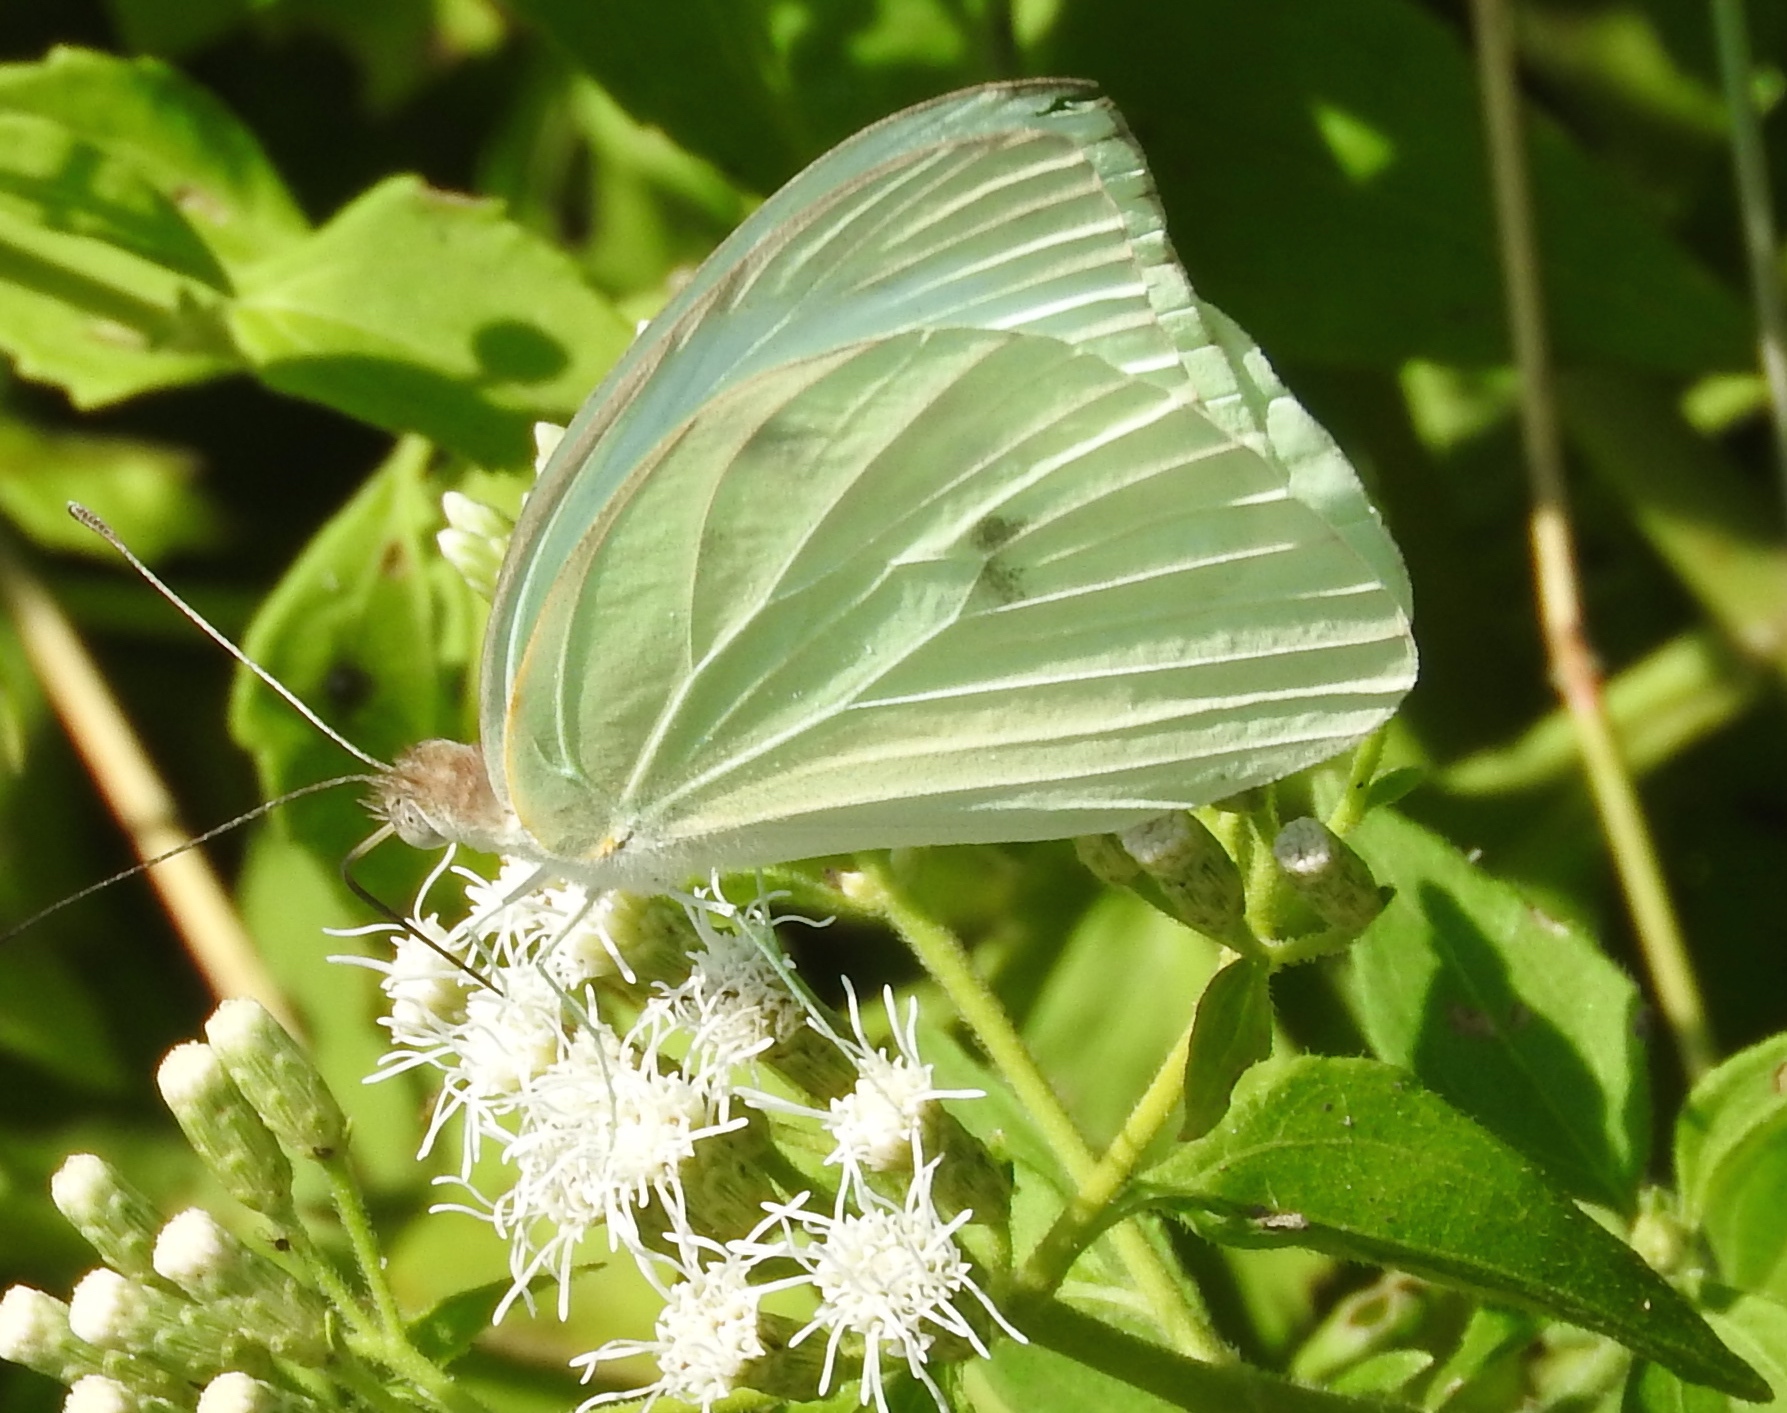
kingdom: Animalia
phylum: Arthropoda
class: Insecta
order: Lepidoptera
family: Pieridae
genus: Ganyra
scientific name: Ganyra josephina
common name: Giant white
